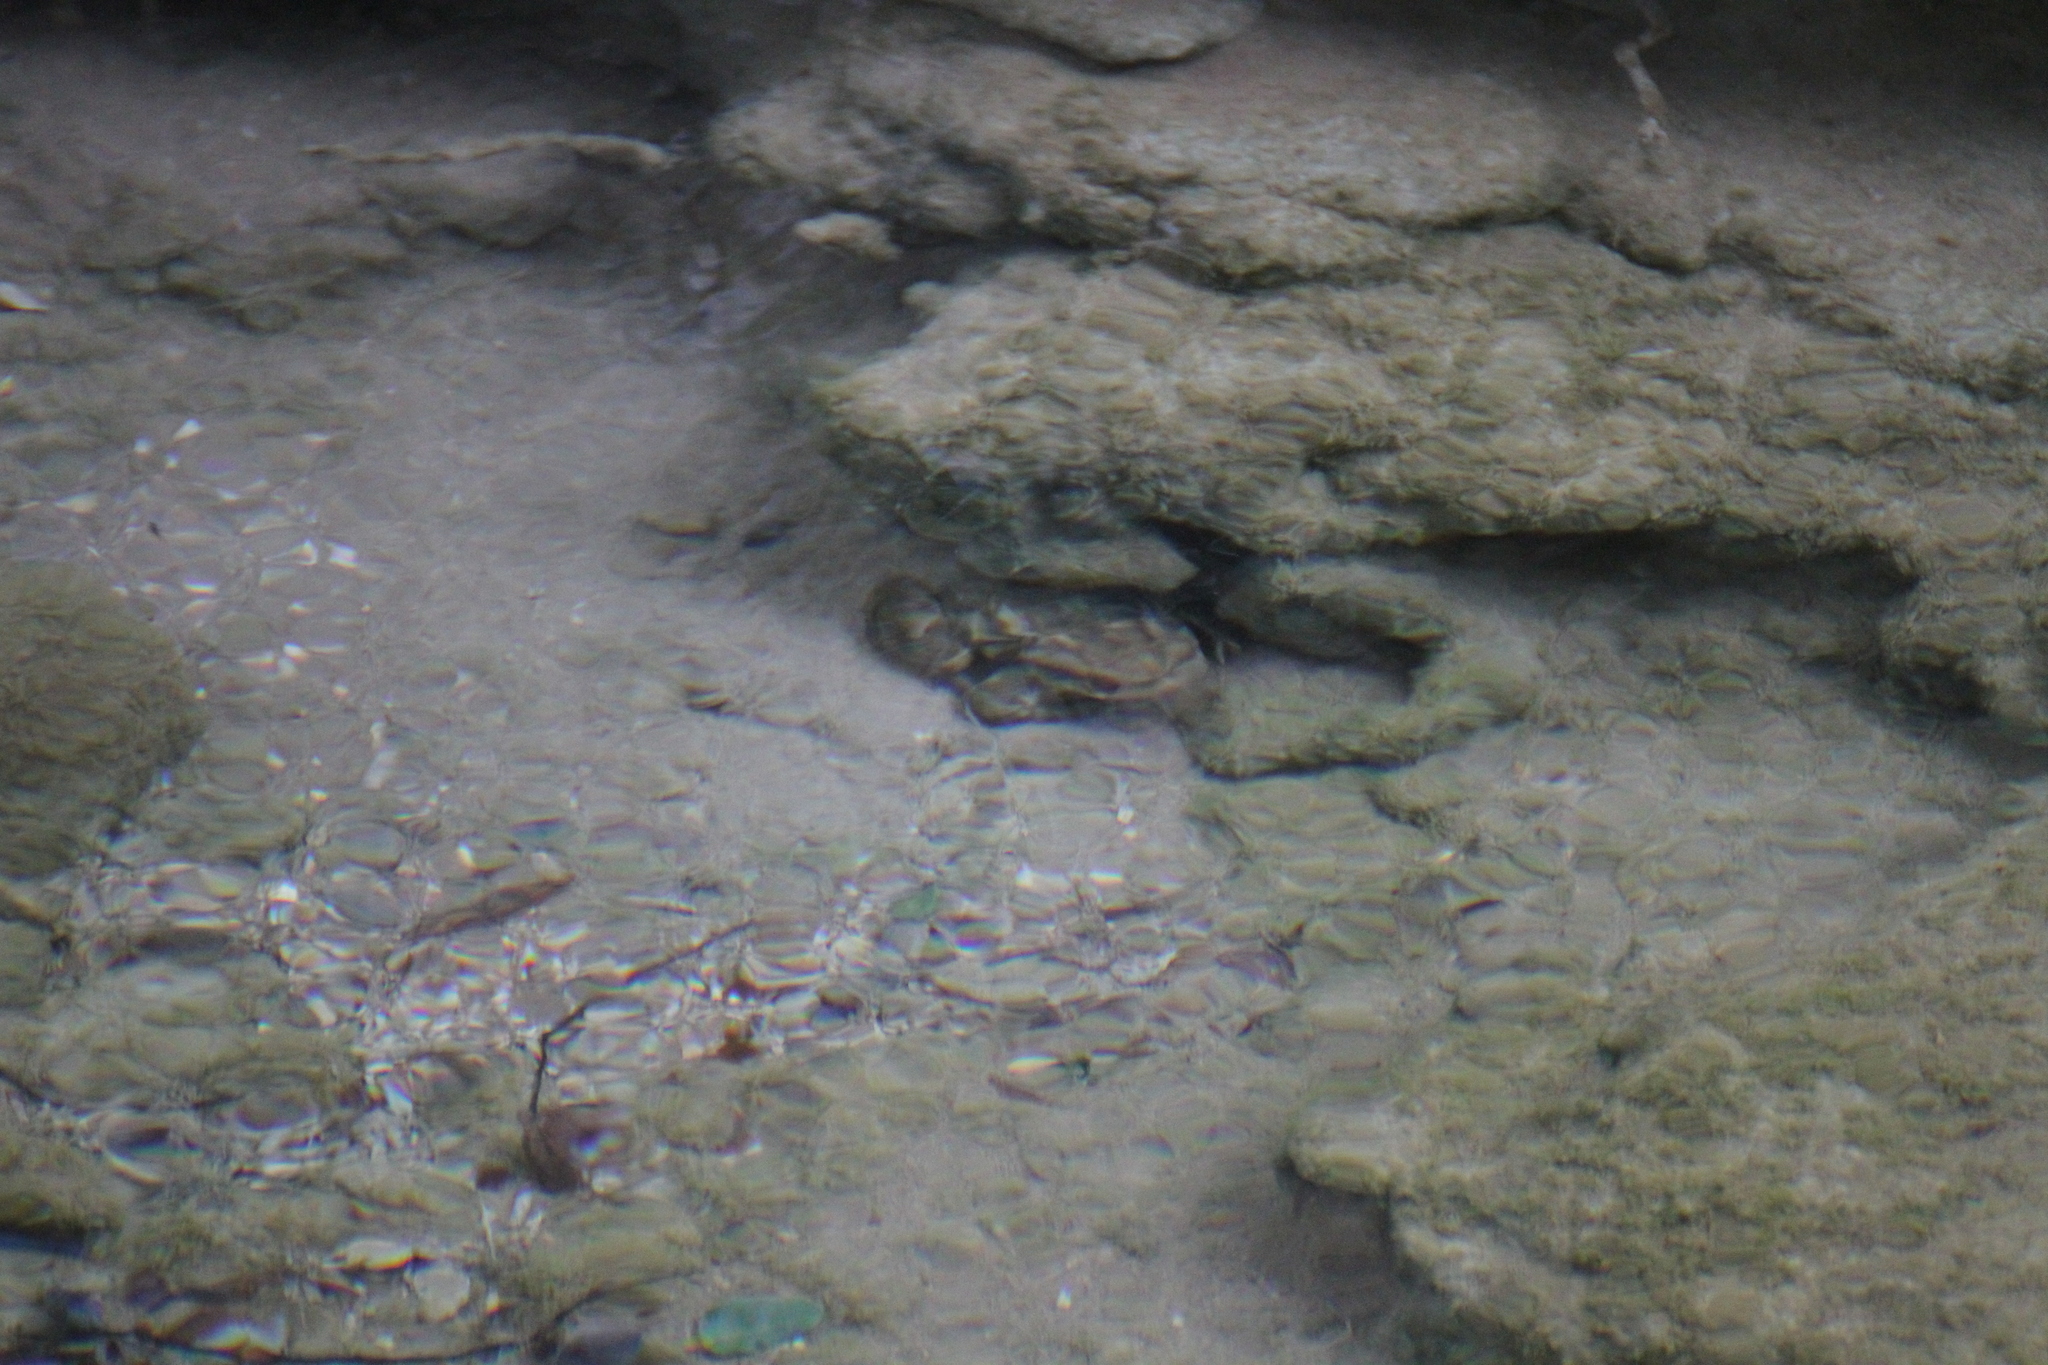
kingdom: Animalia
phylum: Chordata
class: Amphibia
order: Anura
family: Bufonidae
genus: Bufo
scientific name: Bufo spinosus
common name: Western common toad
